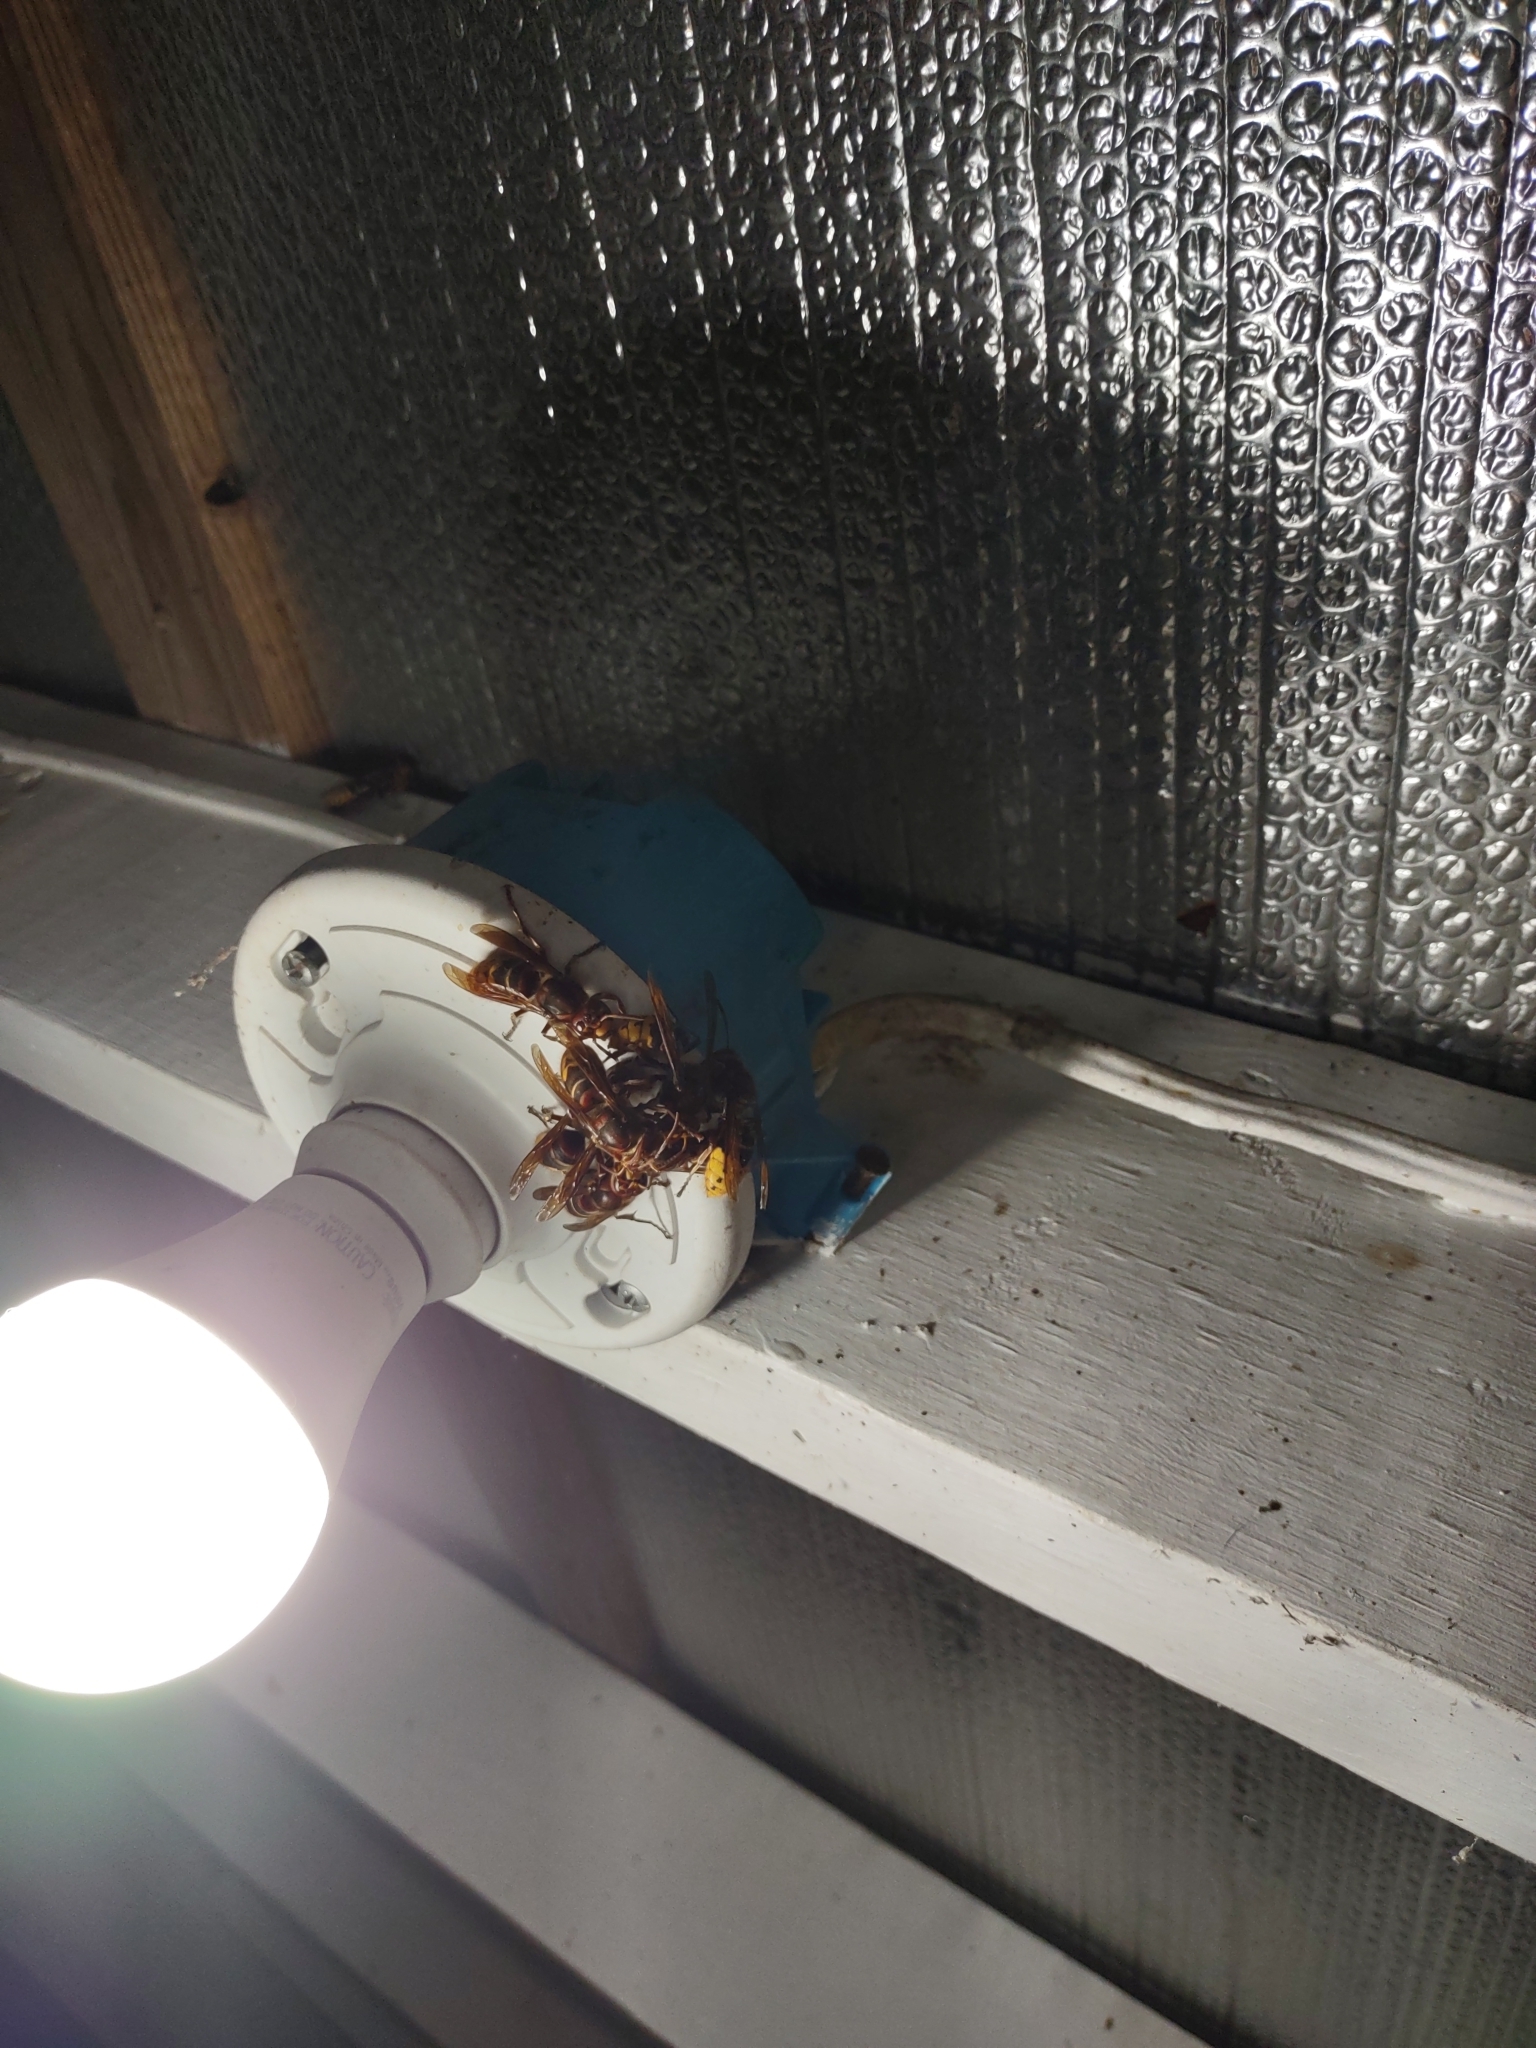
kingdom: Animalia
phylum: Arthropoda
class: Insecta
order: Hymenoptera
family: Vespidae
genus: Vespa
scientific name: Vespa crabro
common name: Hornet
